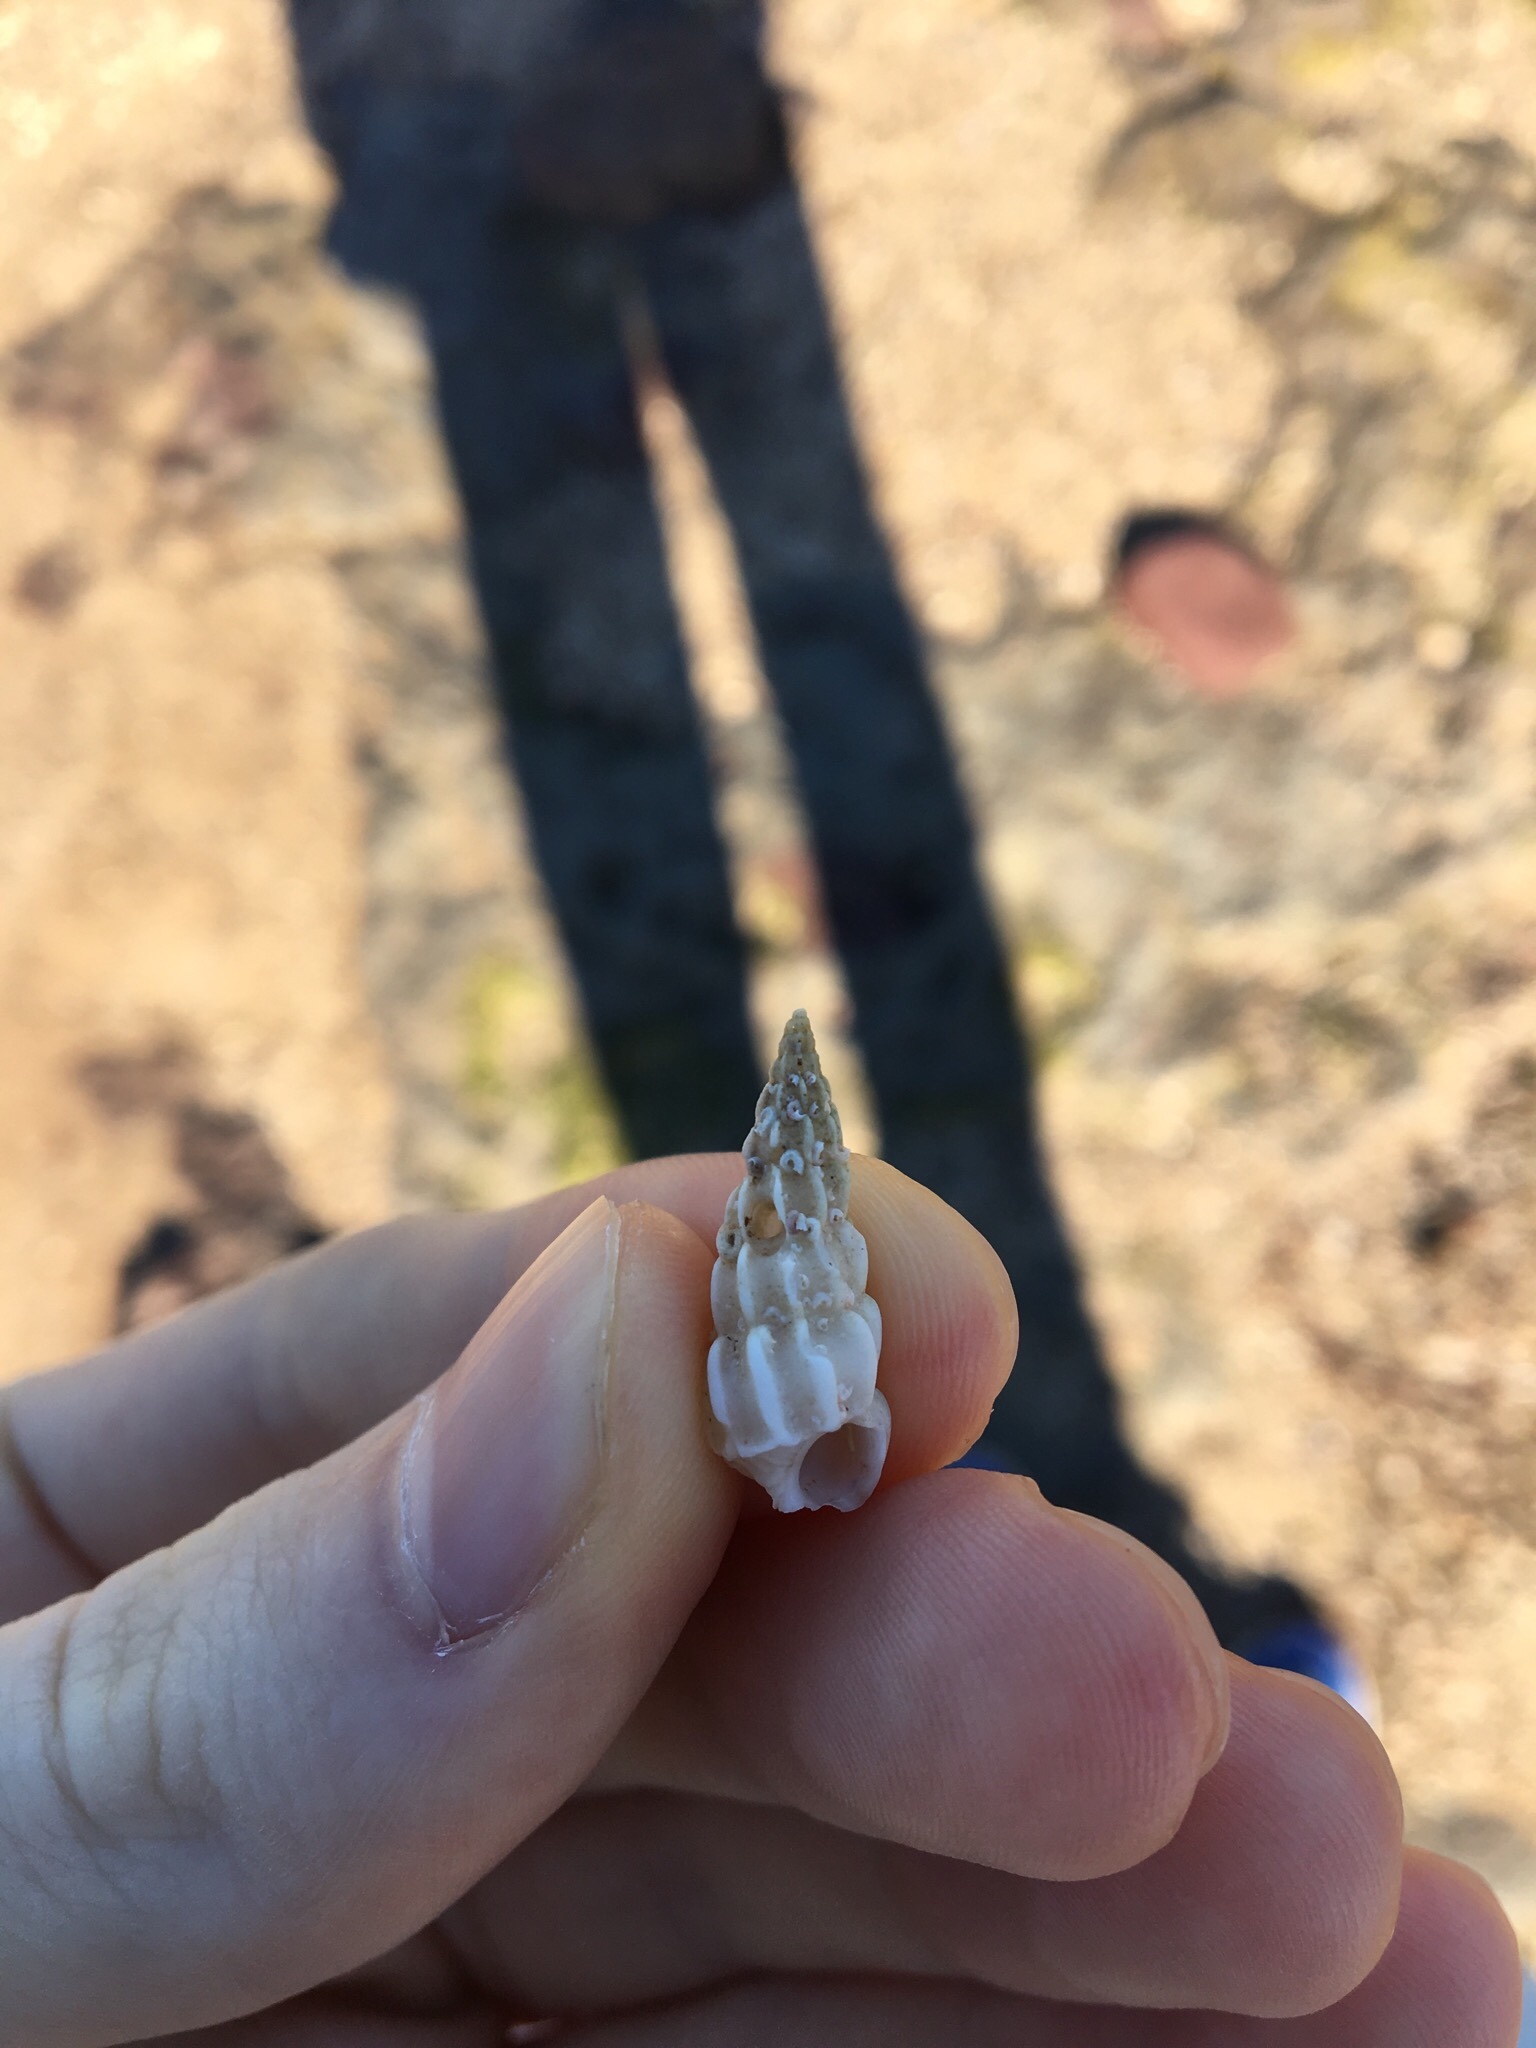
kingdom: Animalia
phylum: Mollusca
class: Gastropoda
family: Epitoniidae
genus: Opalia
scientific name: Opalia australis
